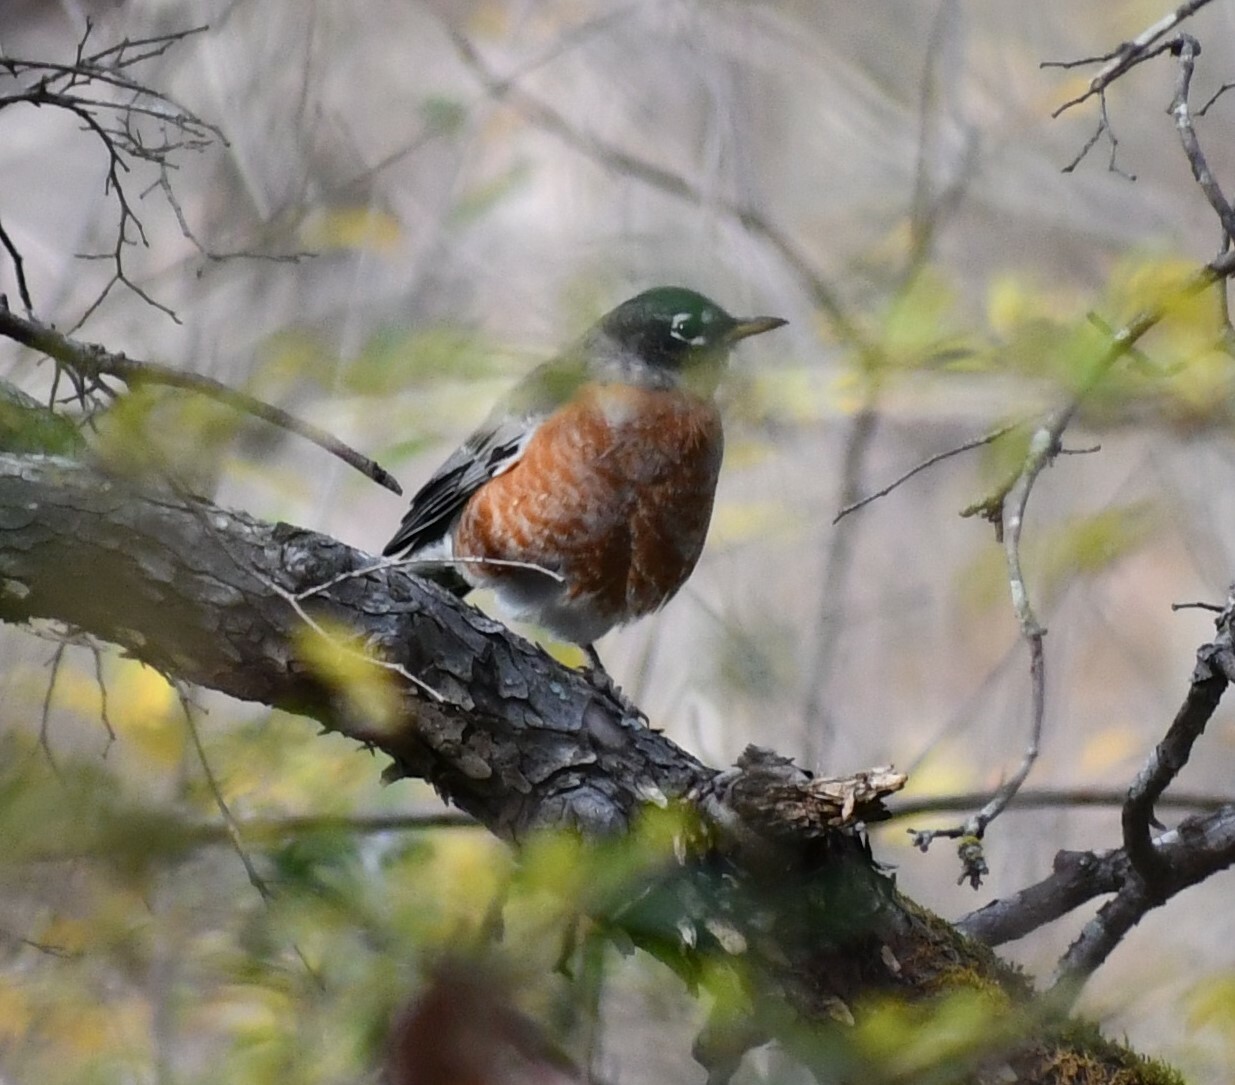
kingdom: Animalia
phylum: Chordata
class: Aves
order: Passeriformes
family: Turdidae
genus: Turdus
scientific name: Turdus migratorius
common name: American robin
